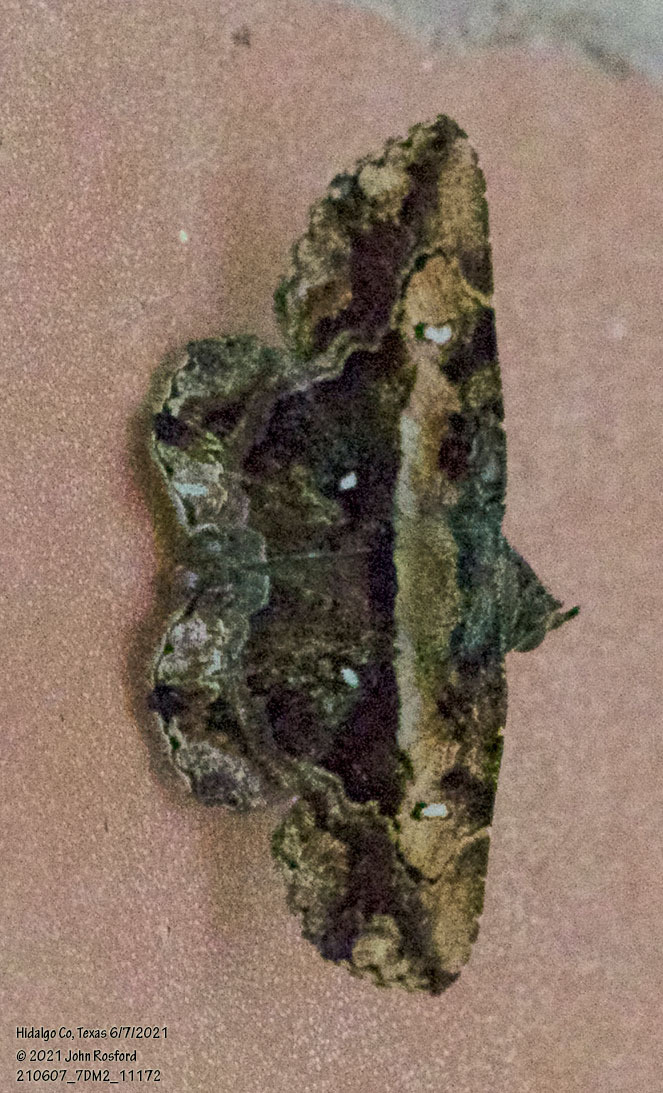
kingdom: Animalia
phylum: Arthropoda
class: Insecta
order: Lepidoptera
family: Erebidae
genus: Helia
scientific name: Helia agna
